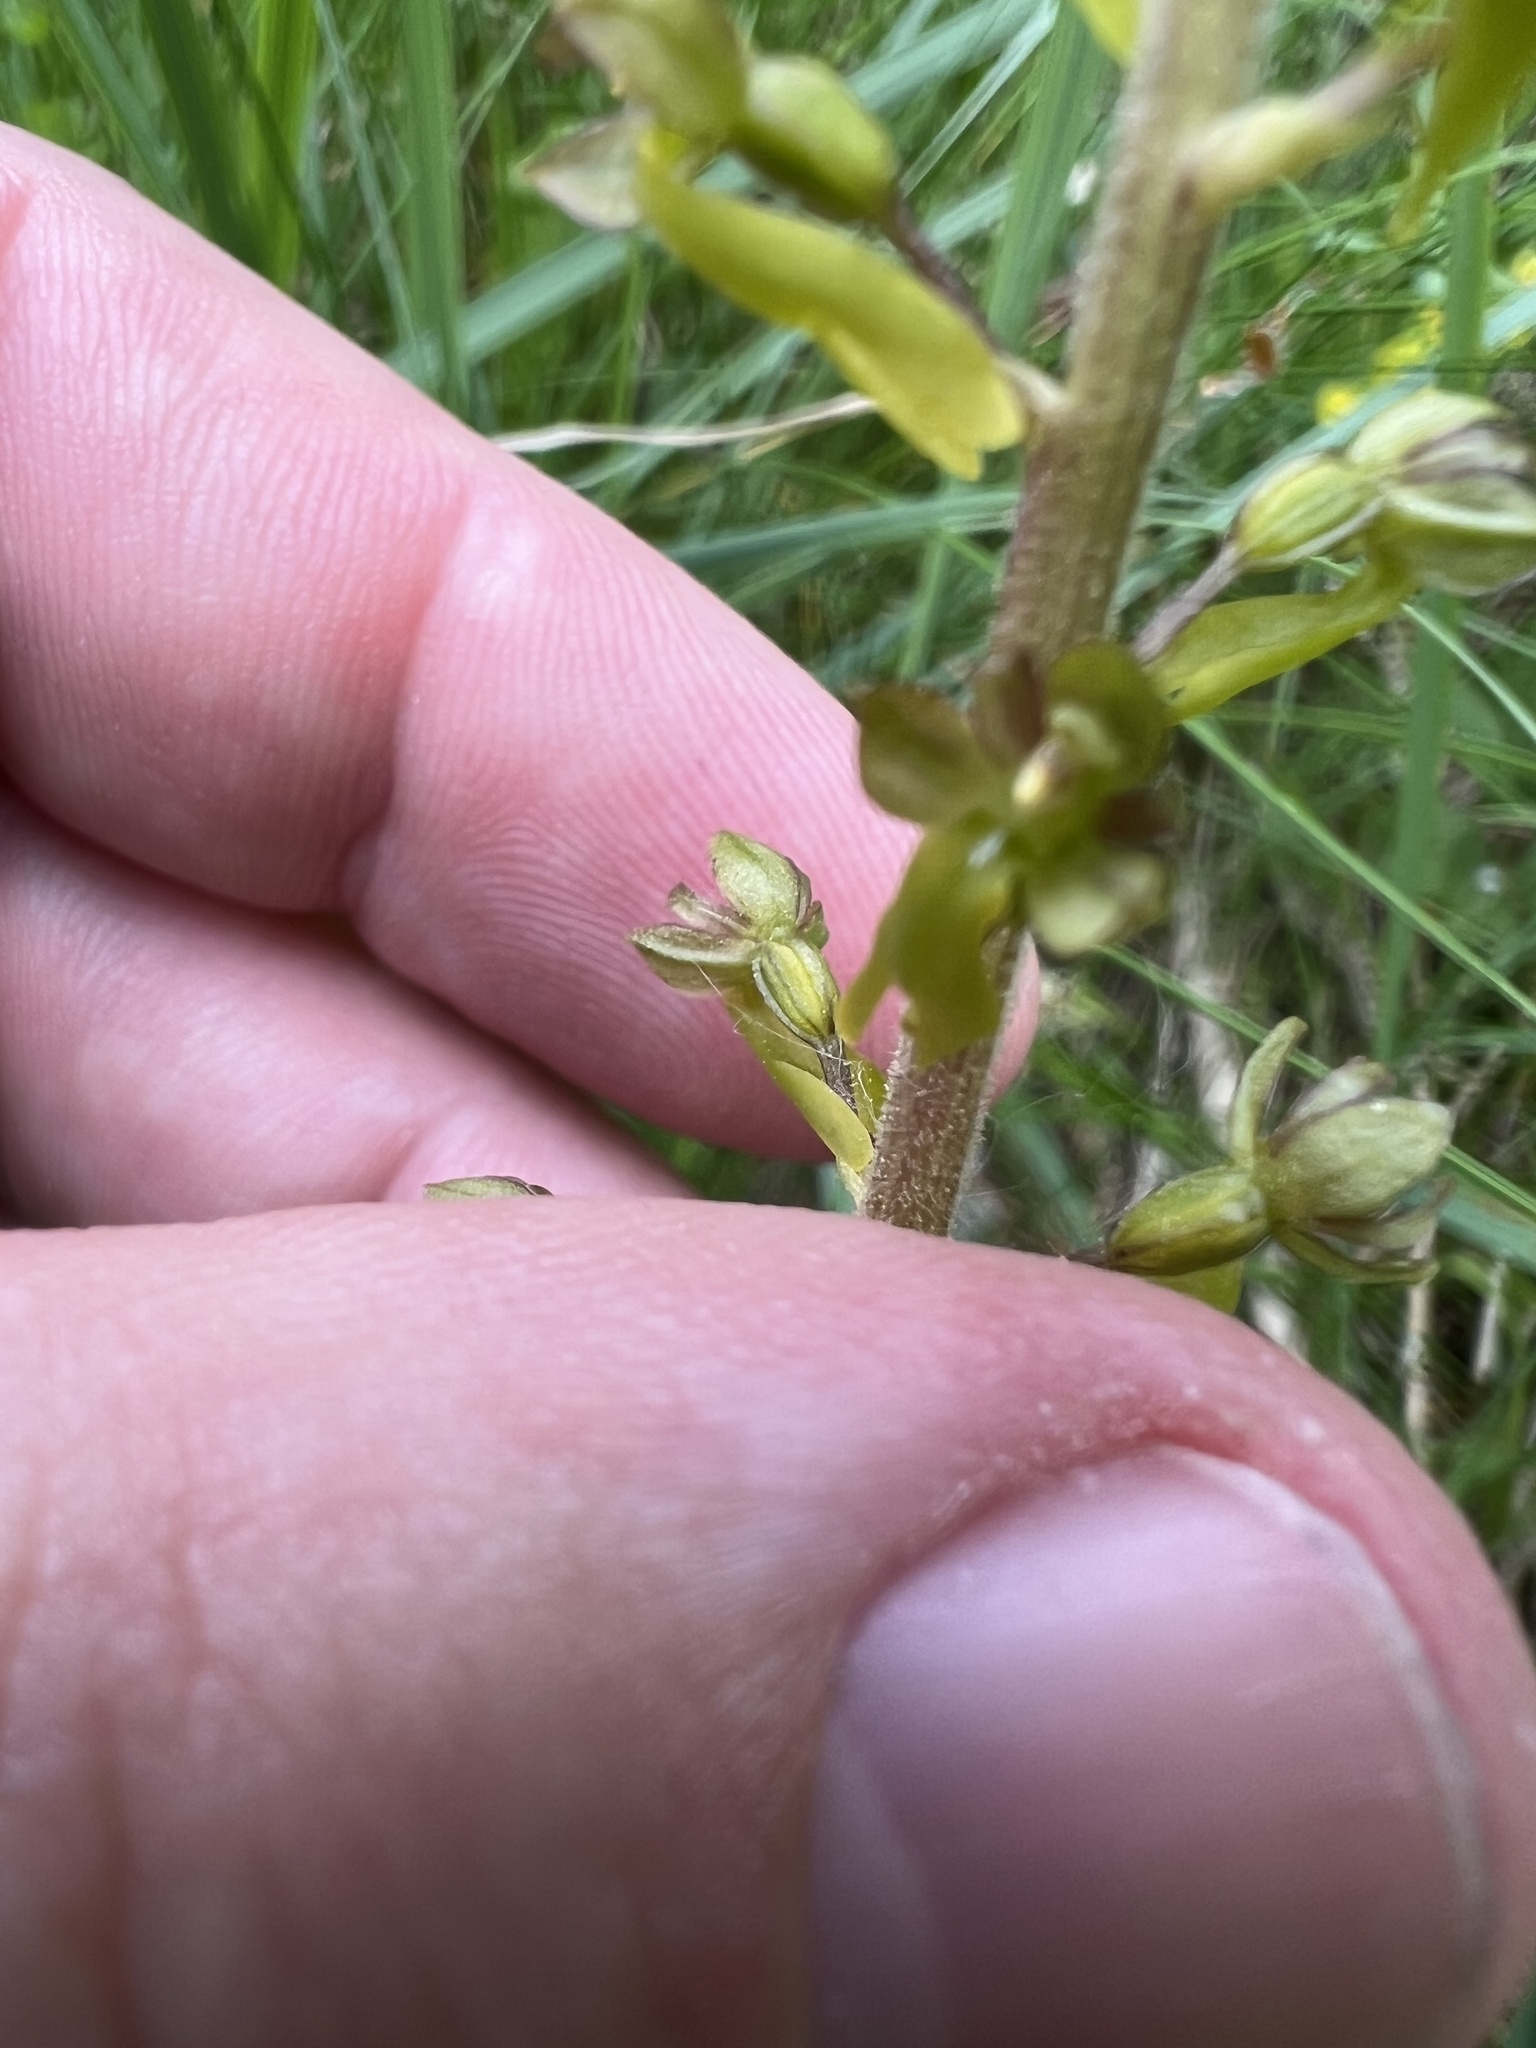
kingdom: Plantae
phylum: Tracheophyta
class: Liliopsida
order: Asparagales
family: Orchidaceae
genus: Neottia
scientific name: Neottia ovata
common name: Common twayblade
